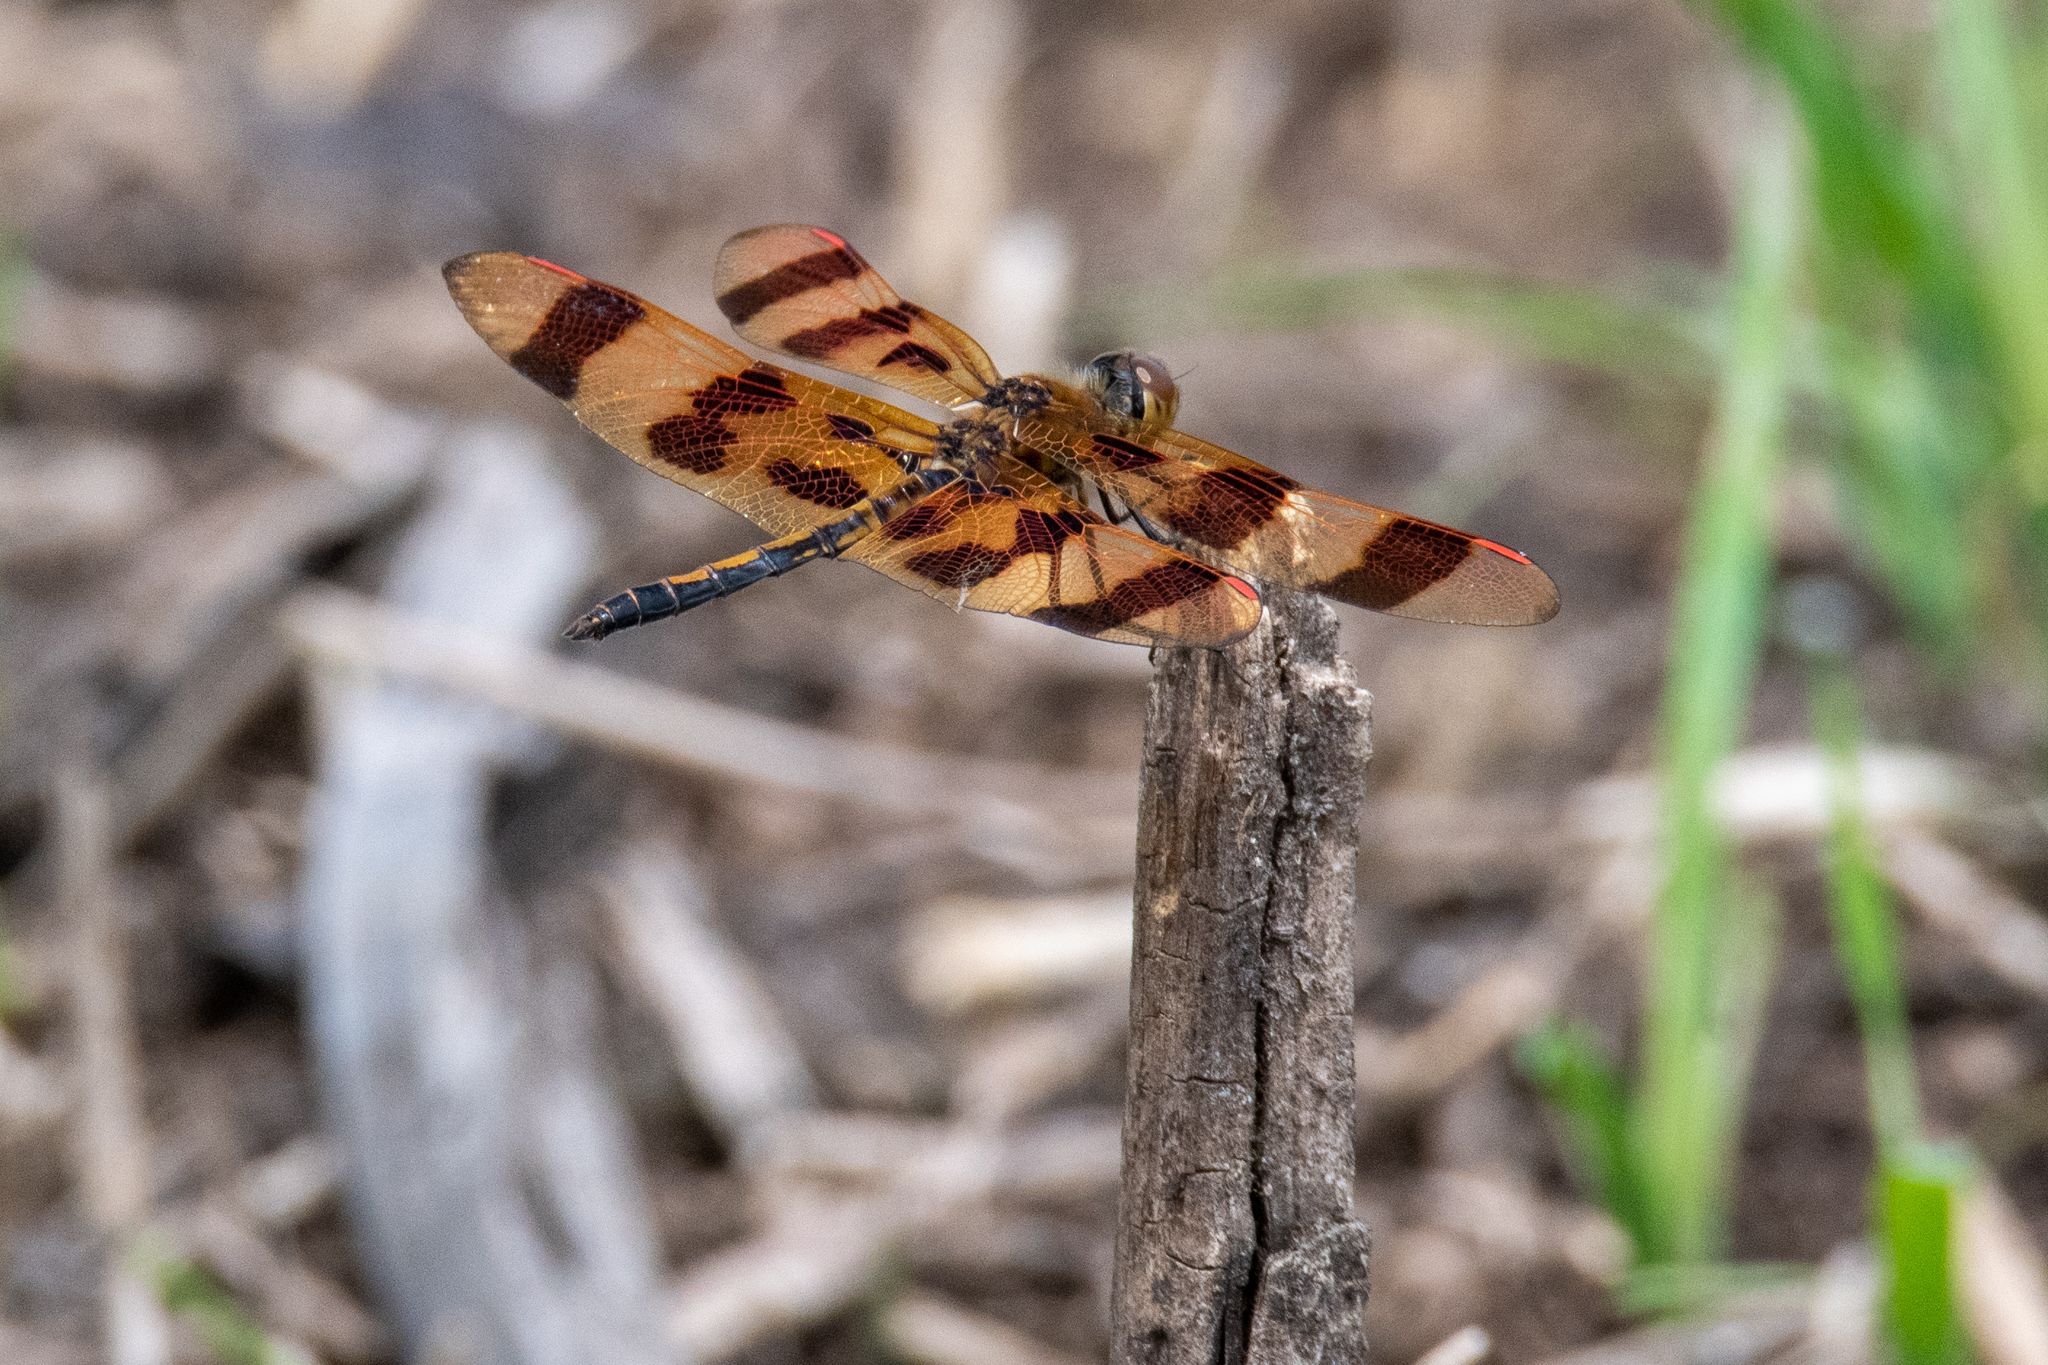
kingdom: Animalia
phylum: Arthropoda
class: Insecta
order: Odonata
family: Libellulidae
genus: Celithemis
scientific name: Celithemis eponina
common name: Halloween pennant
